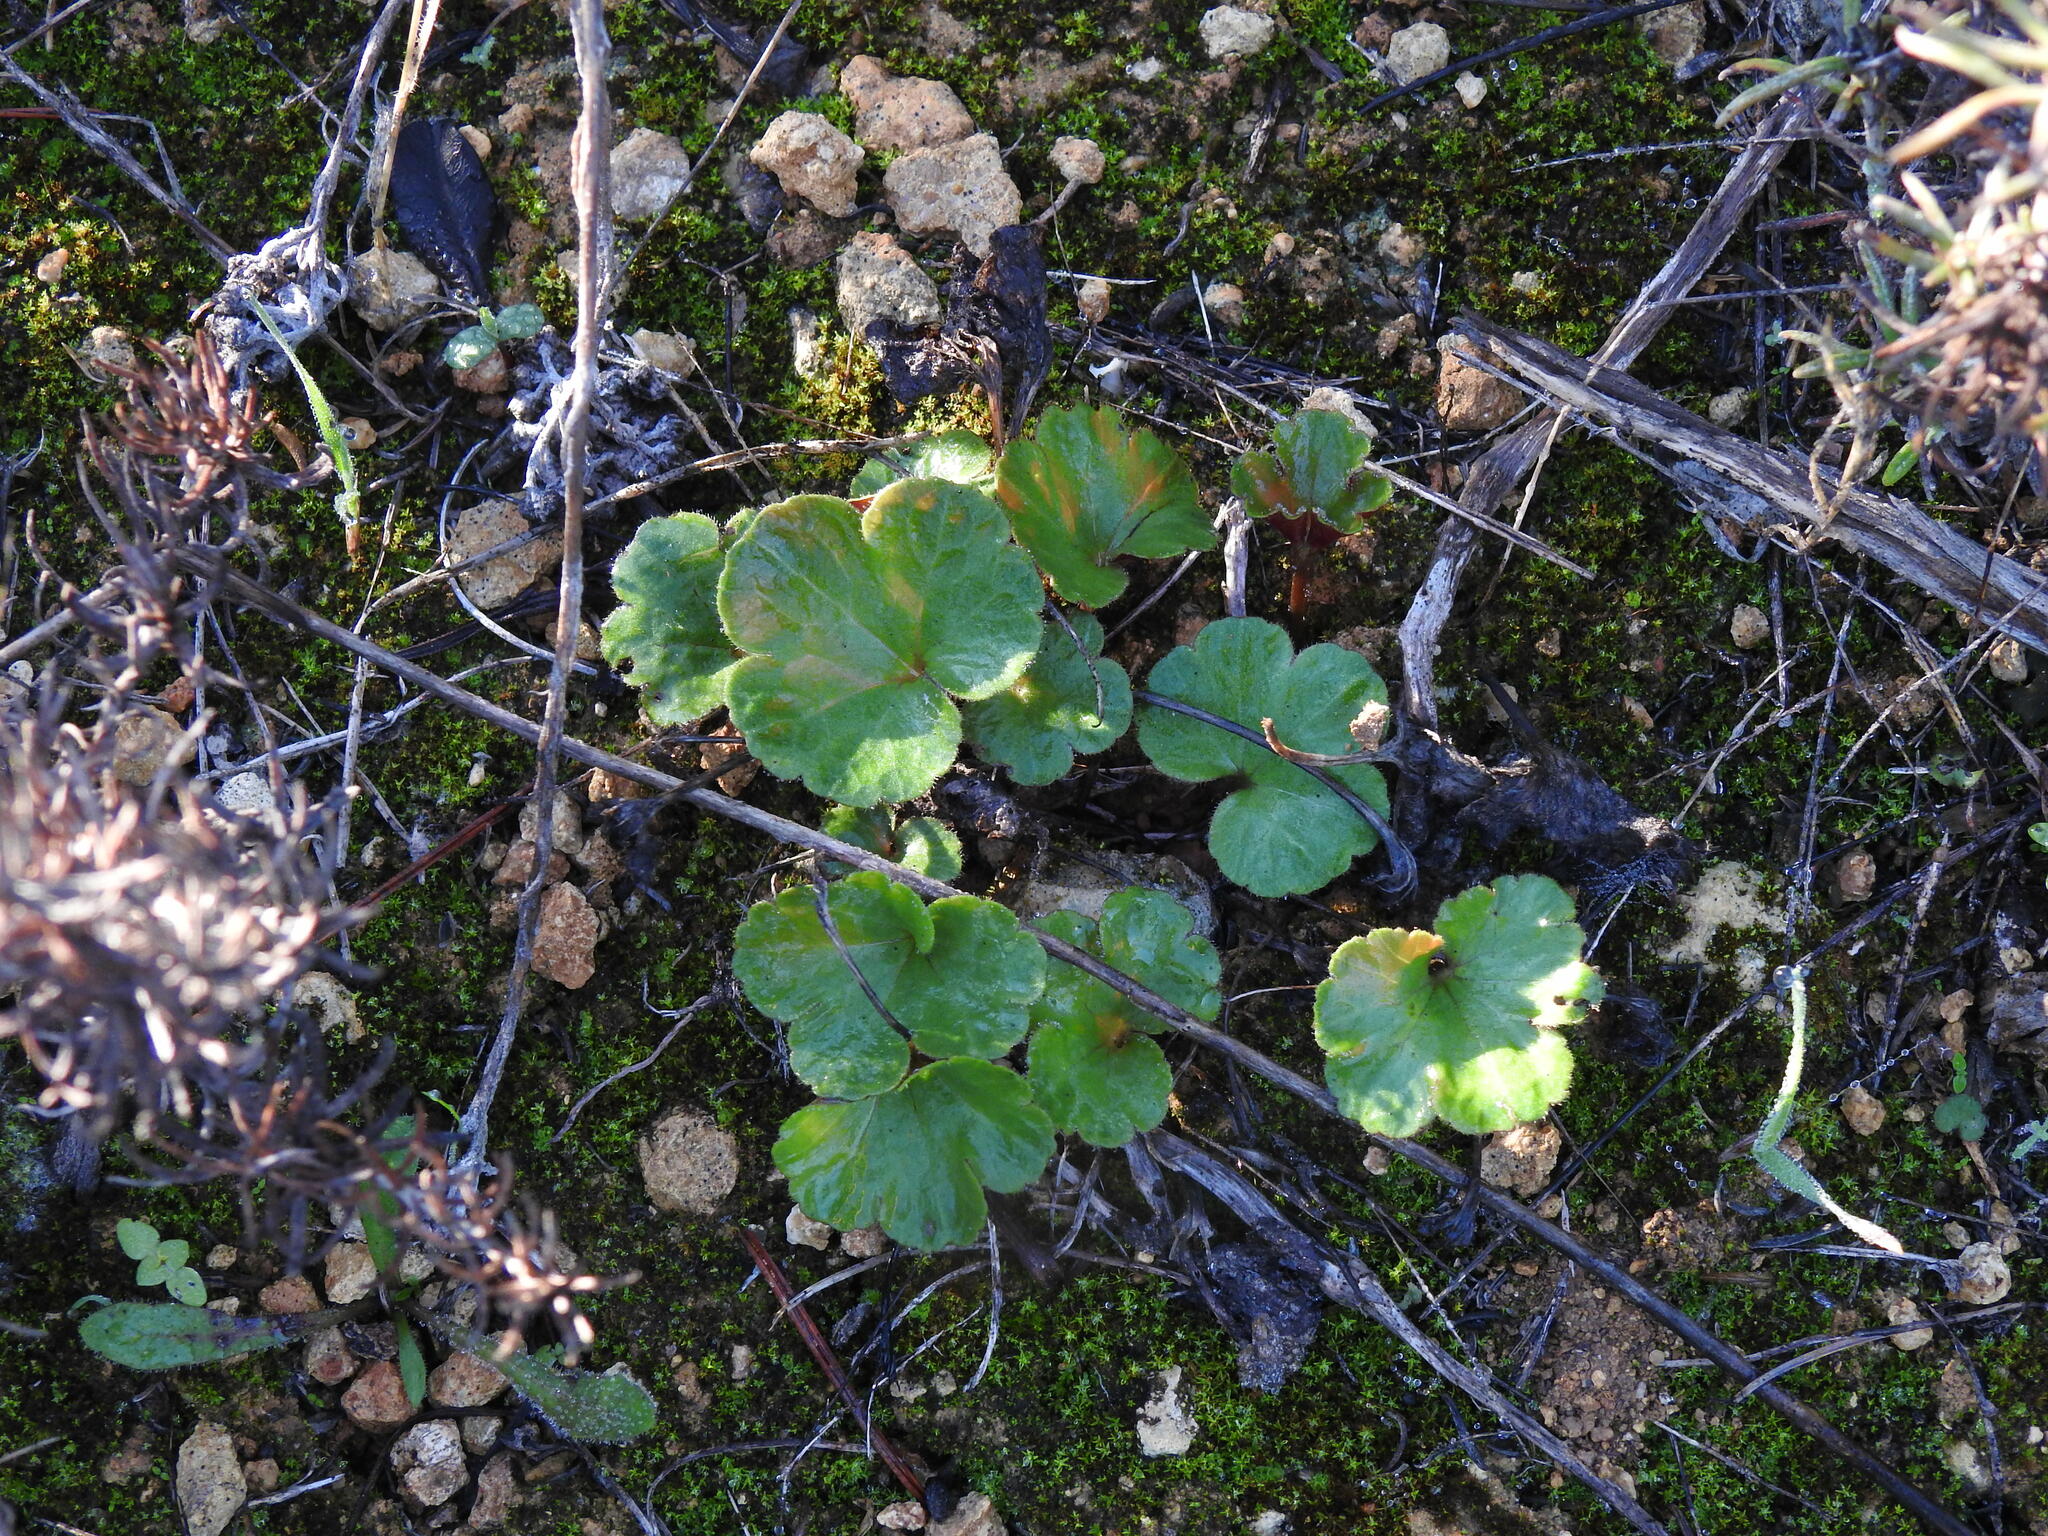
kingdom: Plantae
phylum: Tracheophyta
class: Magnoliopsida
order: Ranunculales
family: Ranunculaceae
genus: Anemone
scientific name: Anemone palmata
